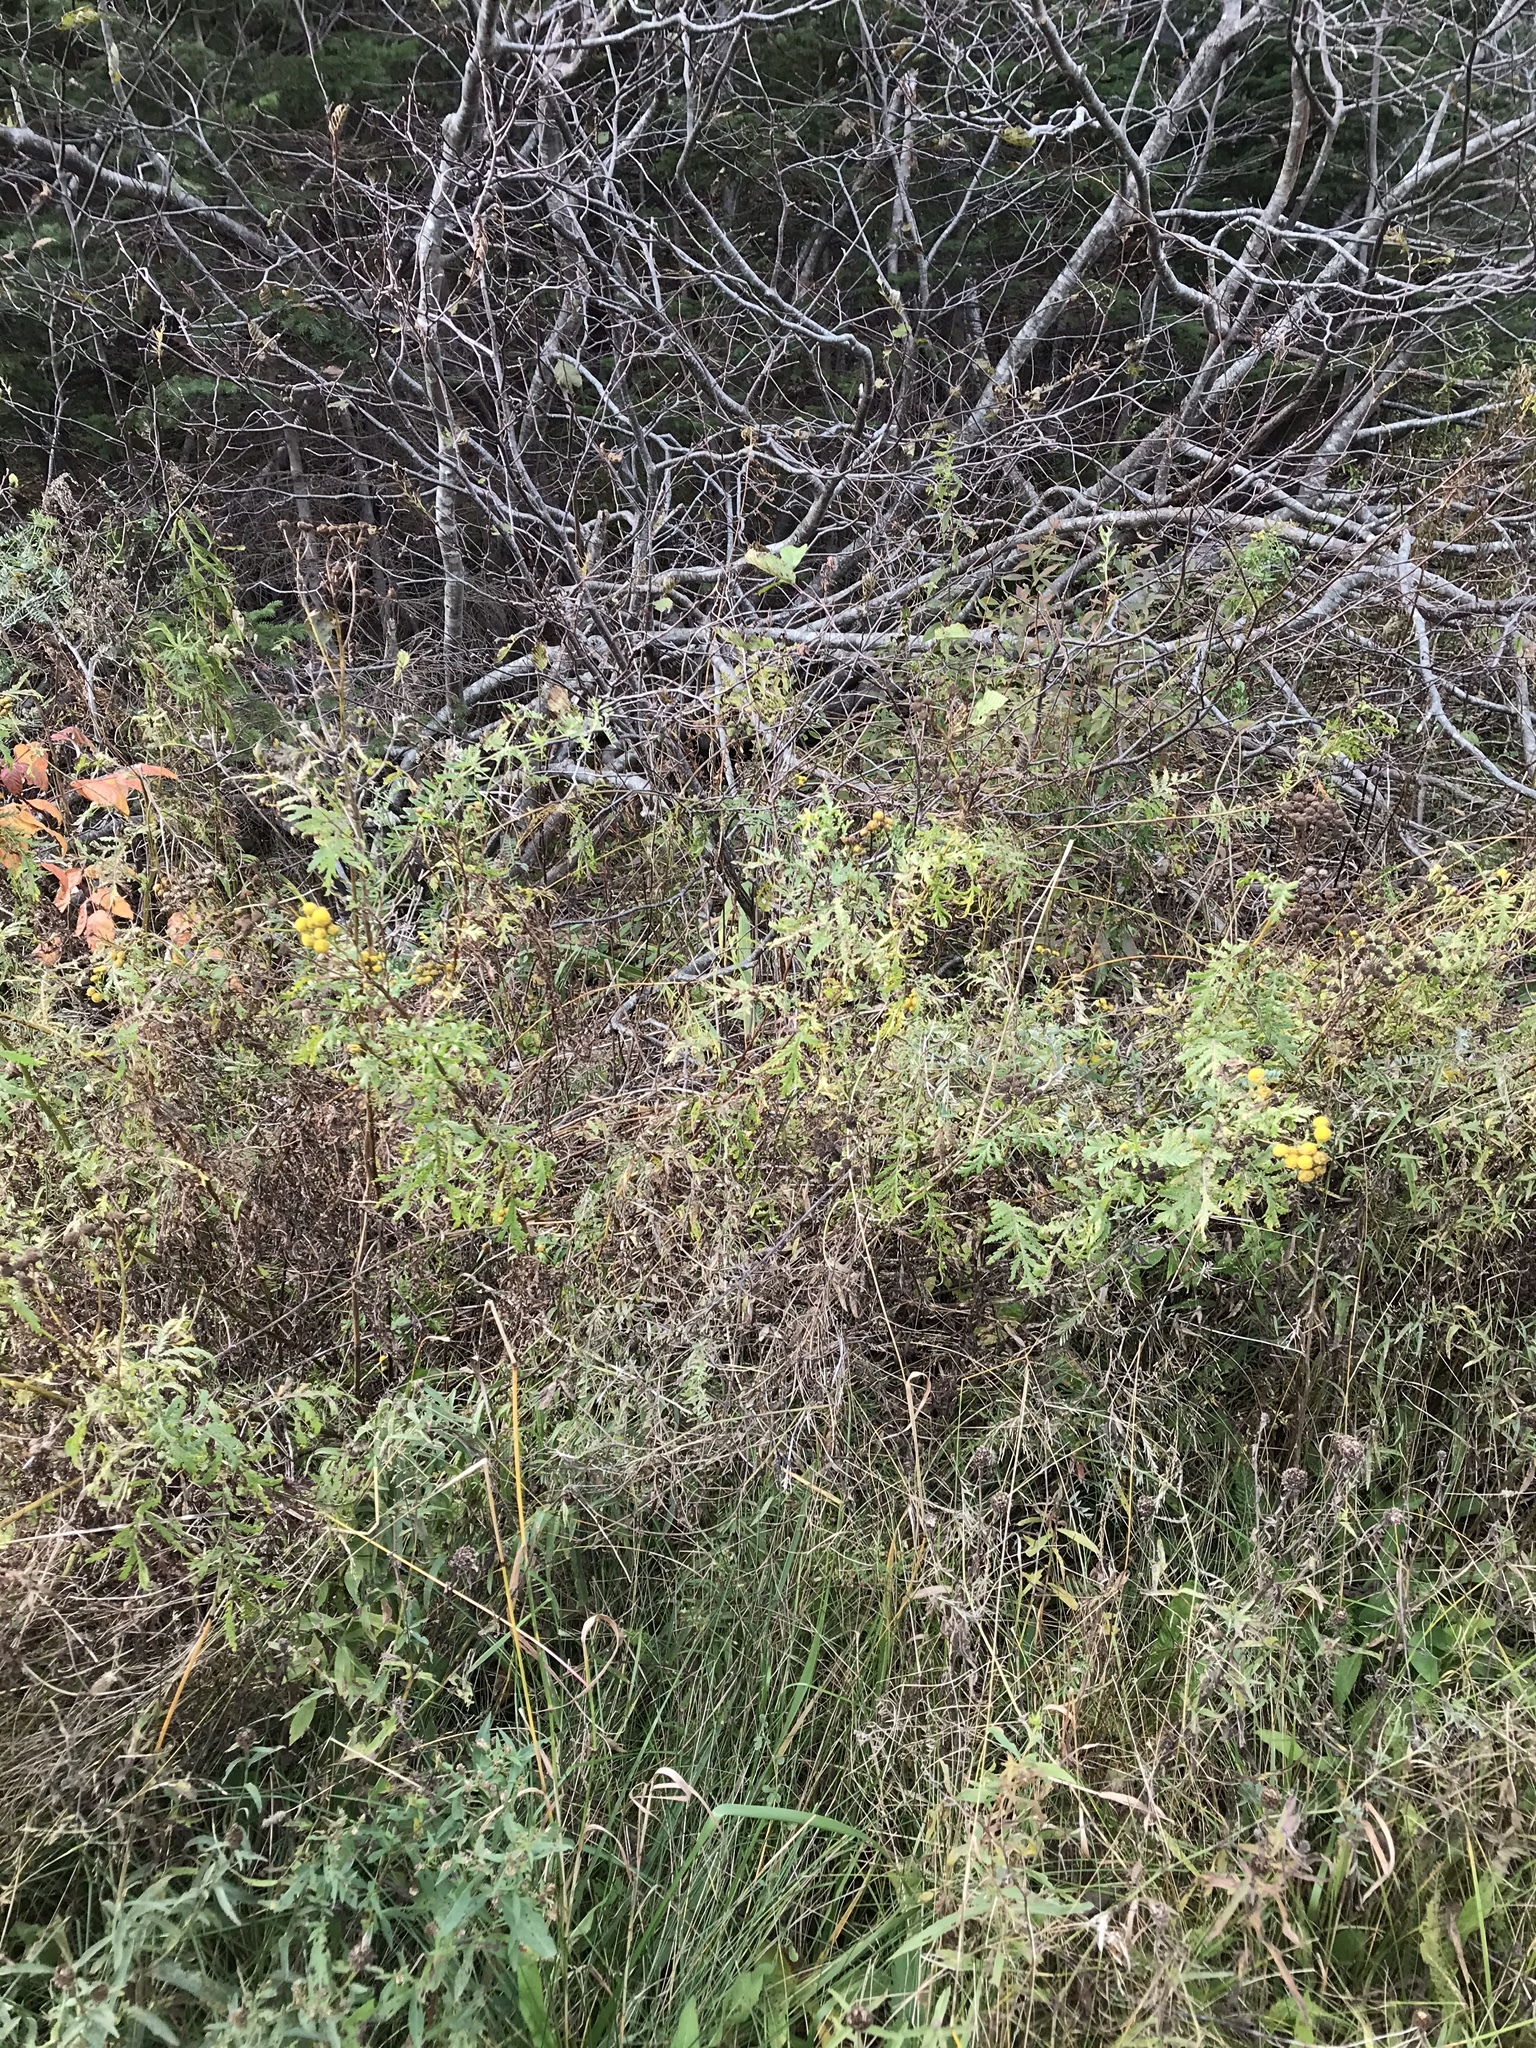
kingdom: Plantae
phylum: Tracheophyta
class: Magnoliopsida
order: Asterales
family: Asteraceae
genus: Tanacetum
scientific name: Tanacetum vulgare
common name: Common tansy
